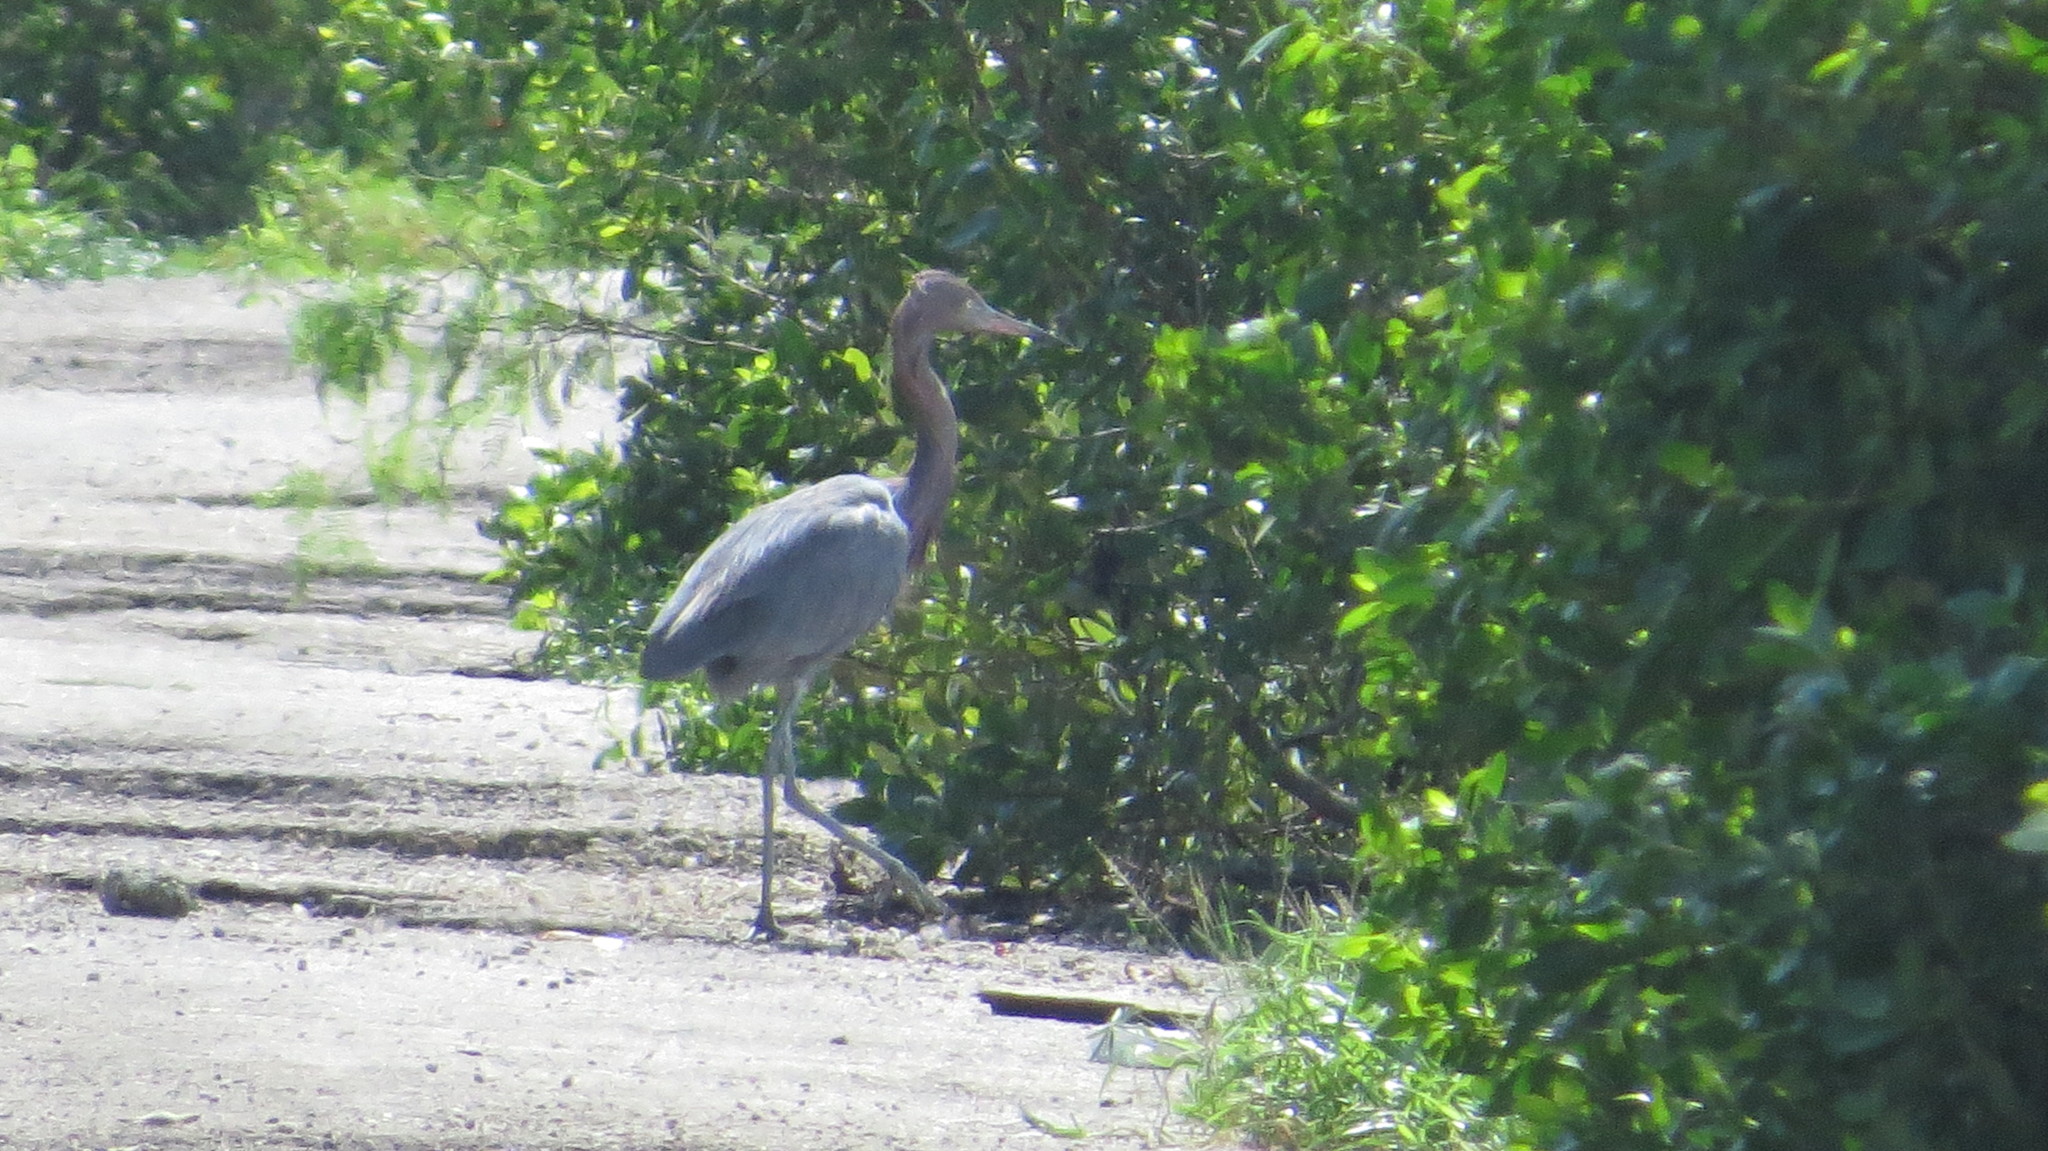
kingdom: Animalia
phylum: Chordata
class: Aves
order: Pelecaniformes
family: Ardeidae
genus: Egretta
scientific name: Egretta rufescens
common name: Reddish egret
